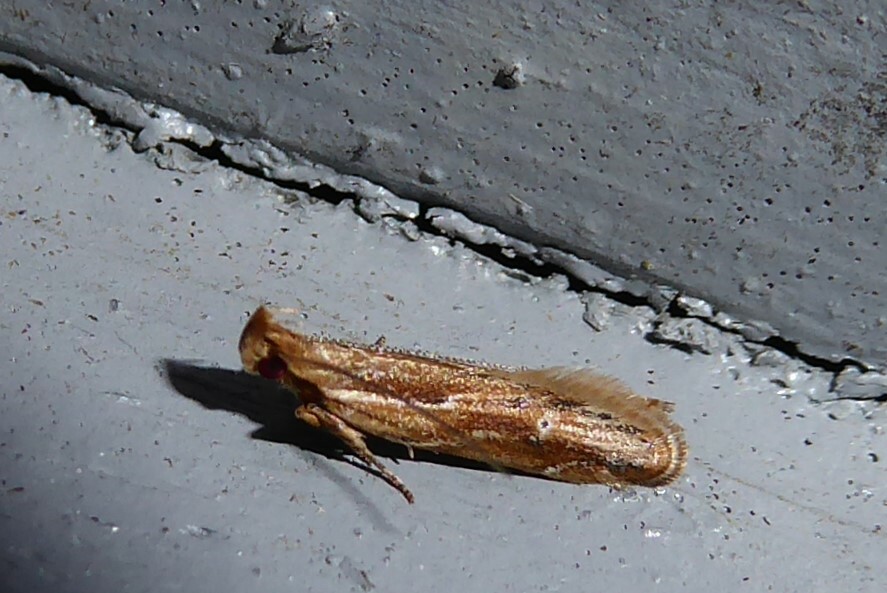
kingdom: Animalia
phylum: Arthropoda
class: Insecta
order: Lepidoptera
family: Depressariidae
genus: Eutorna
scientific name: Eutorna symmorpha
